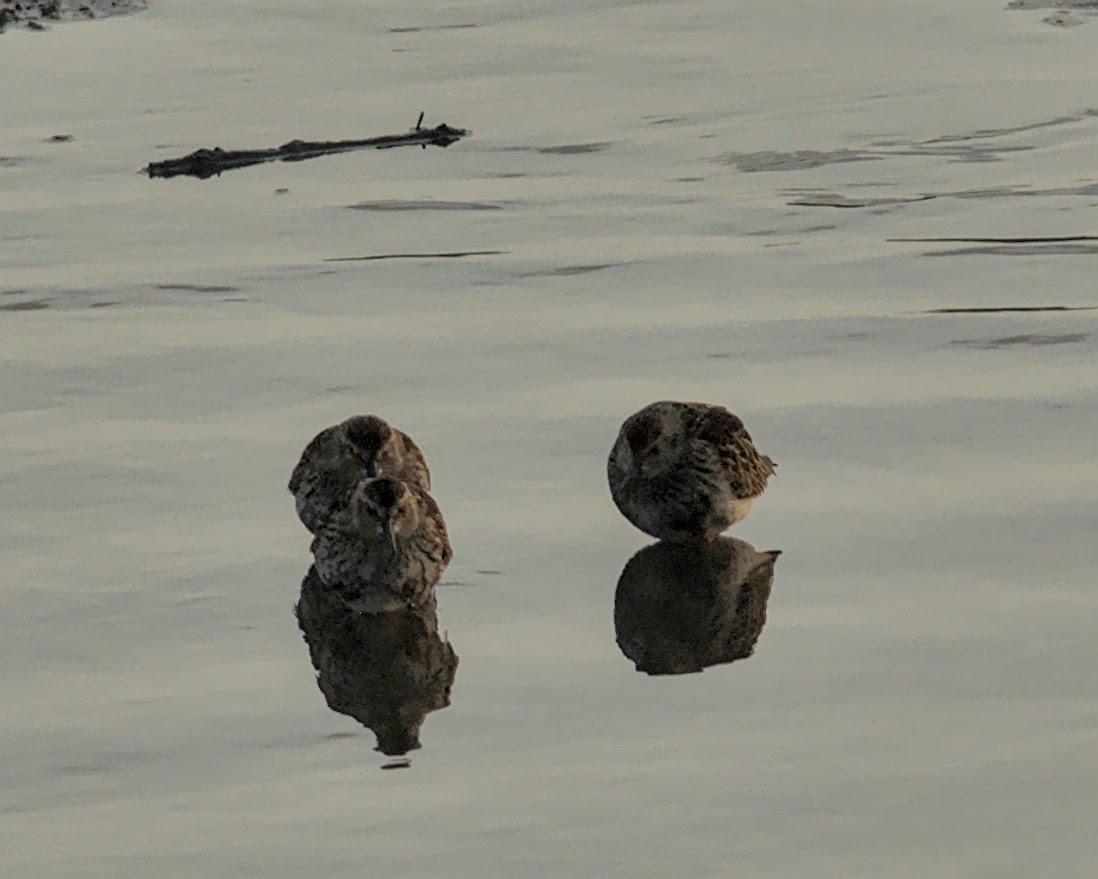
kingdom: Animalia
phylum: Chordata
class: Aves
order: Charadriiformes
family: Scolopacidae
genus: Calidris
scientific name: Calidris maritima
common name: Purple sandpiper
